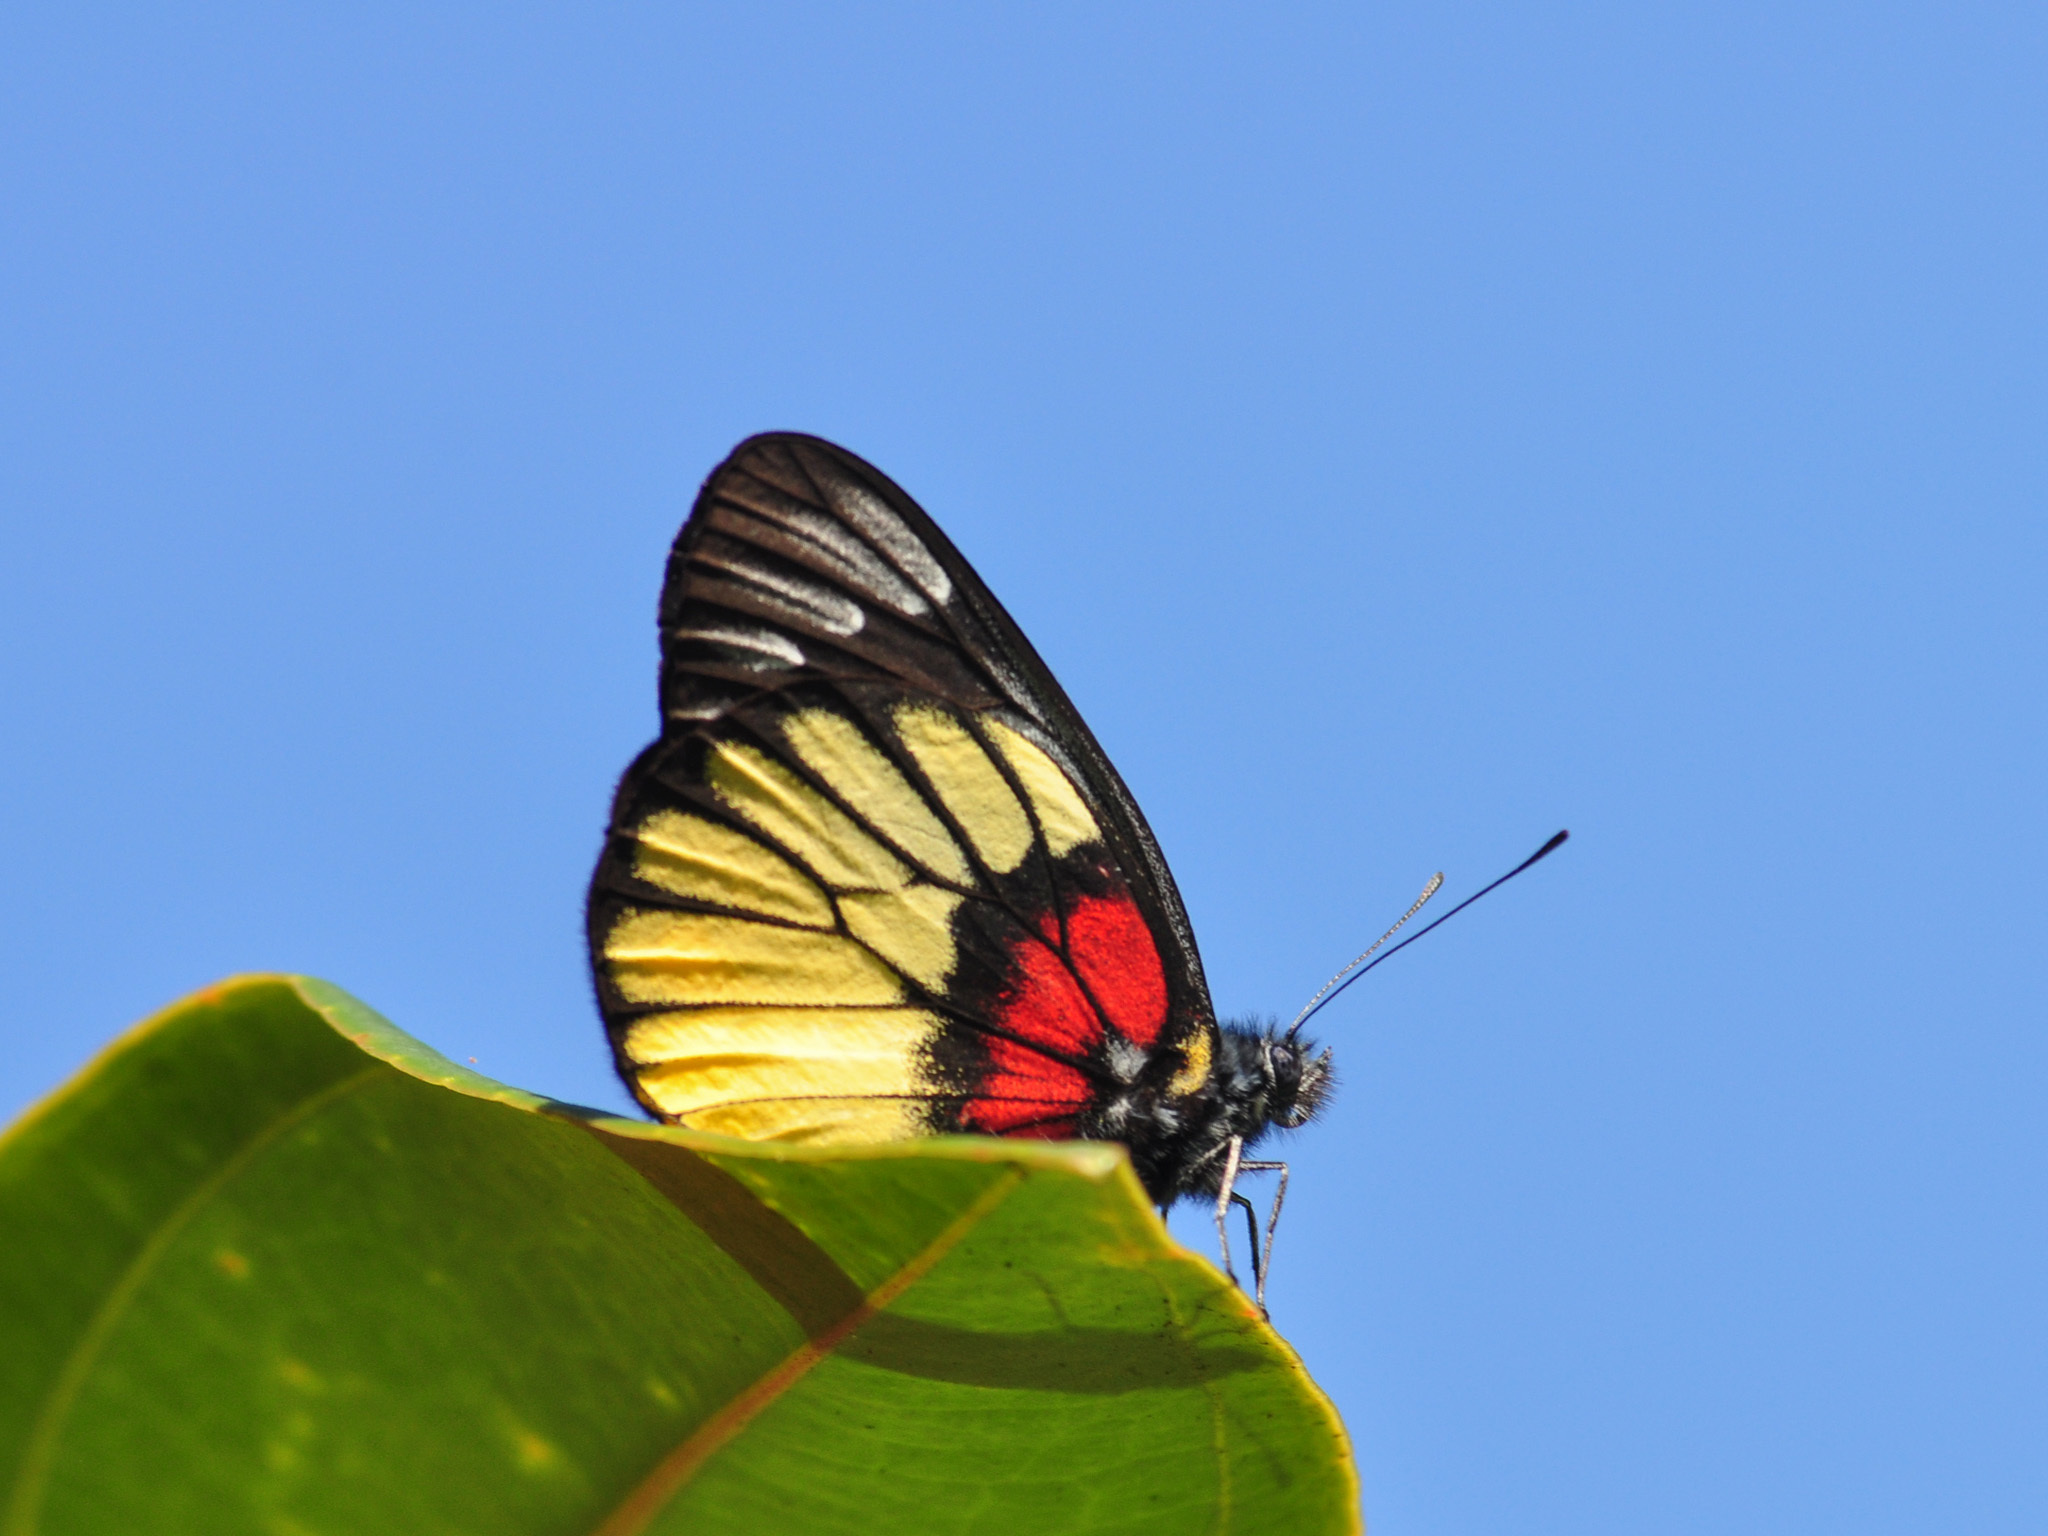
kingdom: Animalia
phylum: Arthropoda
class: Insecta
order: Lepidoptera
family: Pieridae
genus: Delias
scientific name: Delias ninus
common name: Malayan jezebel
